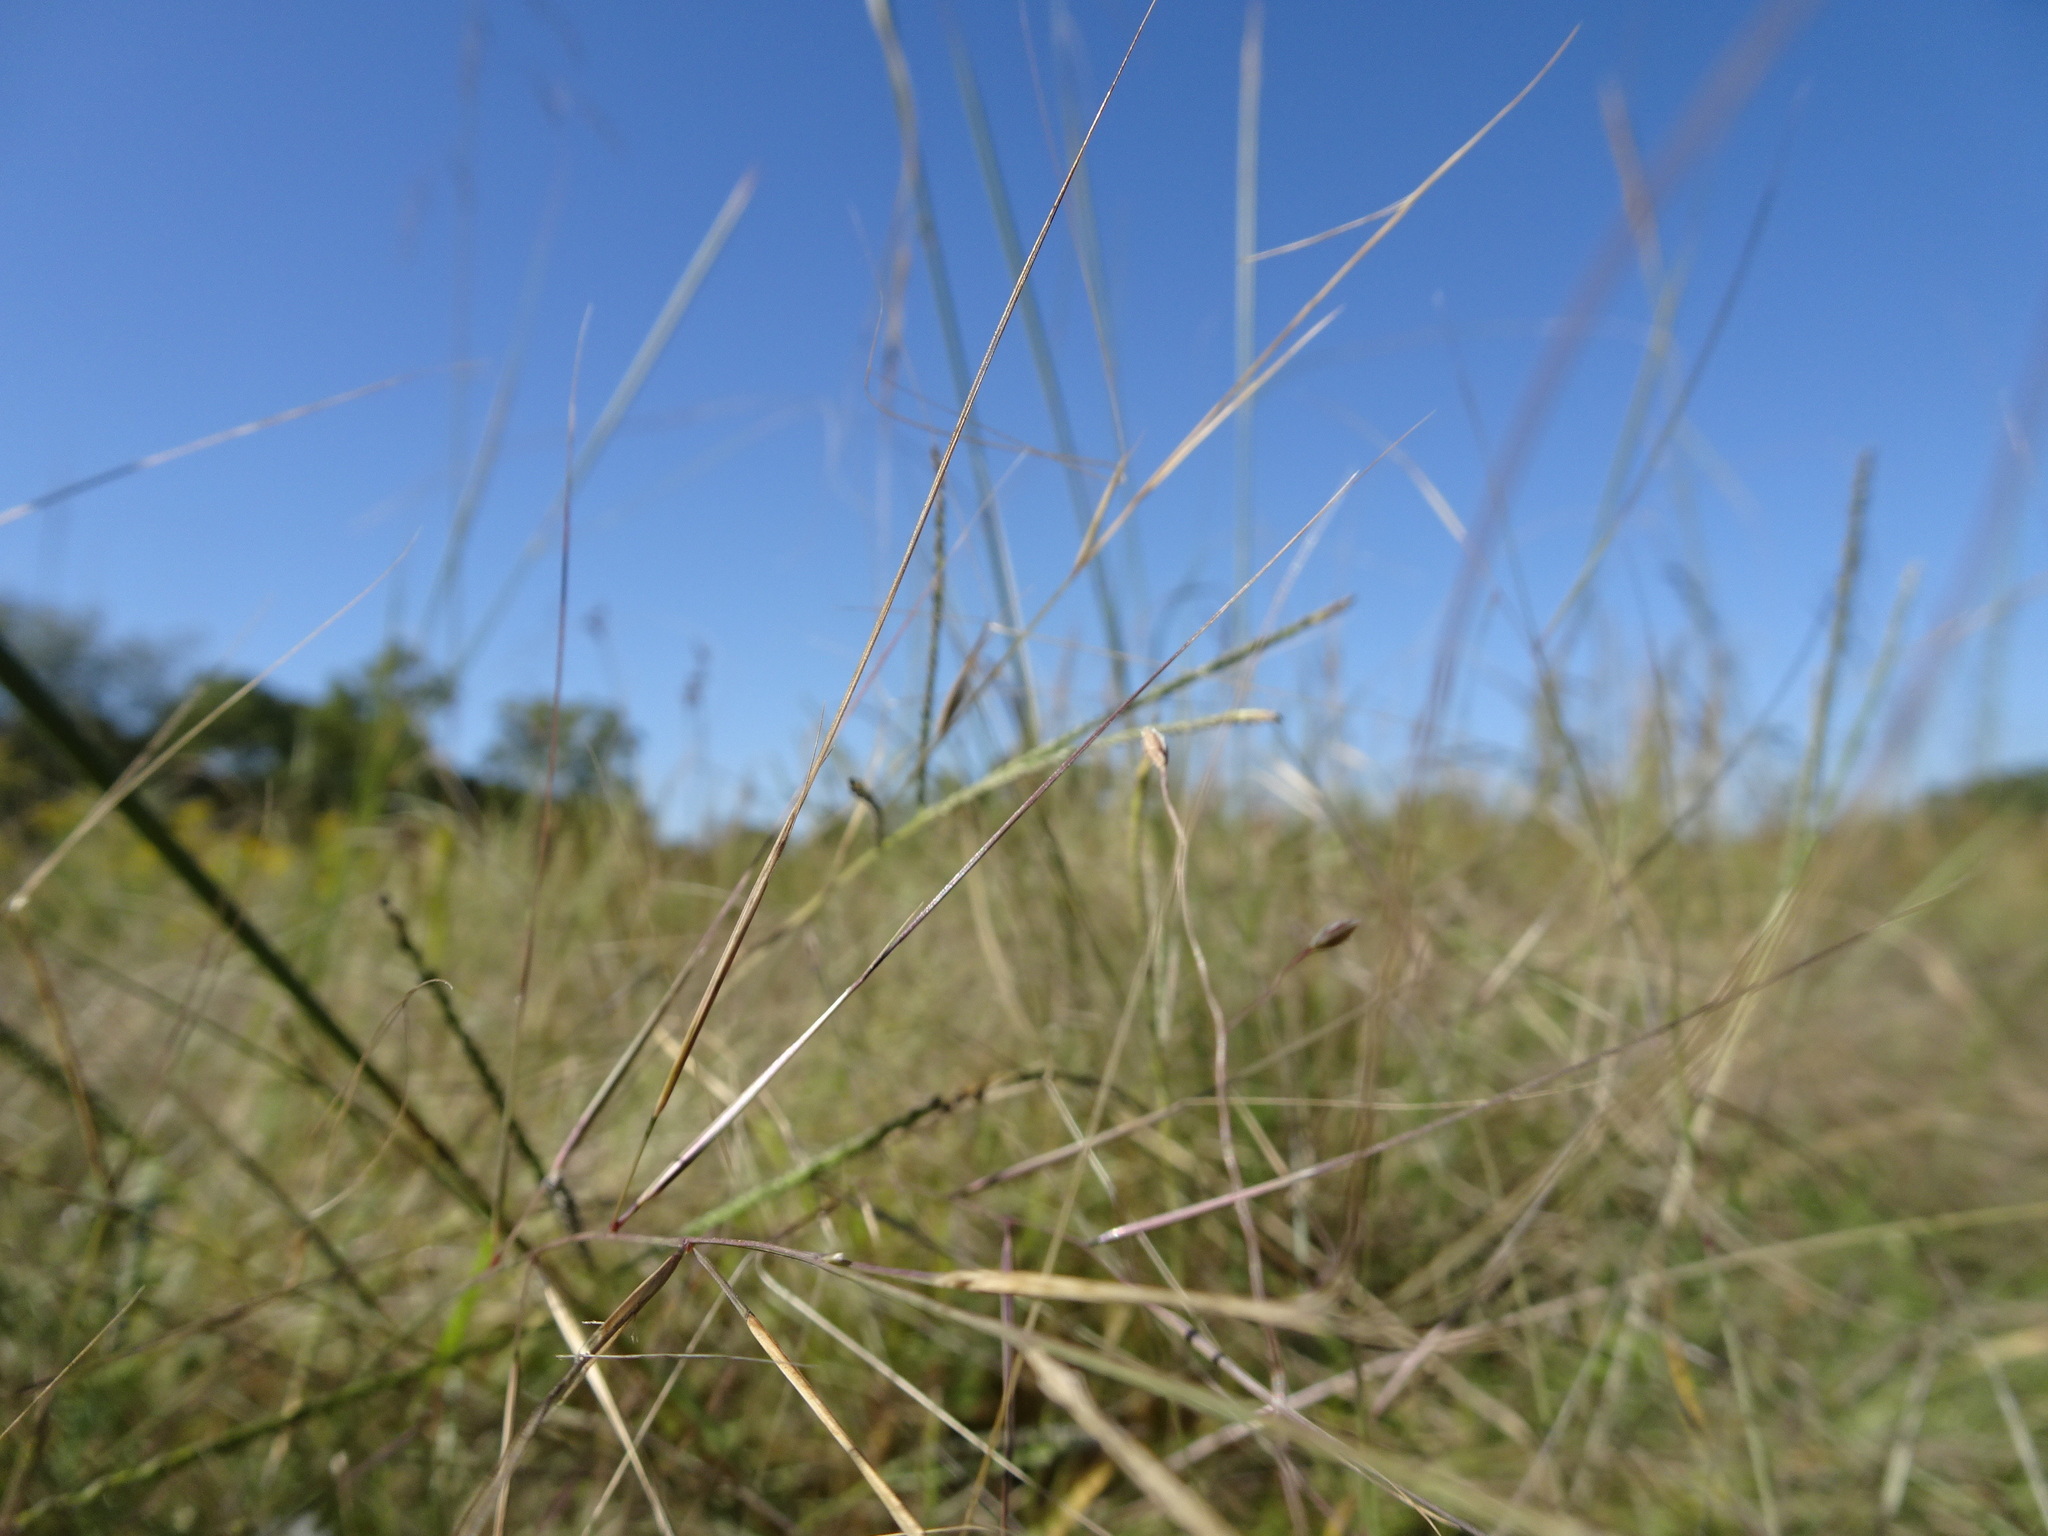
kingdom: Plantae
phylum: Tracheophyta
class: Liliopsida
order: Poales
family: Poaceae
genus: Aristida
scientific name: Aristida oligantha
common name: Few-flowered aristida
